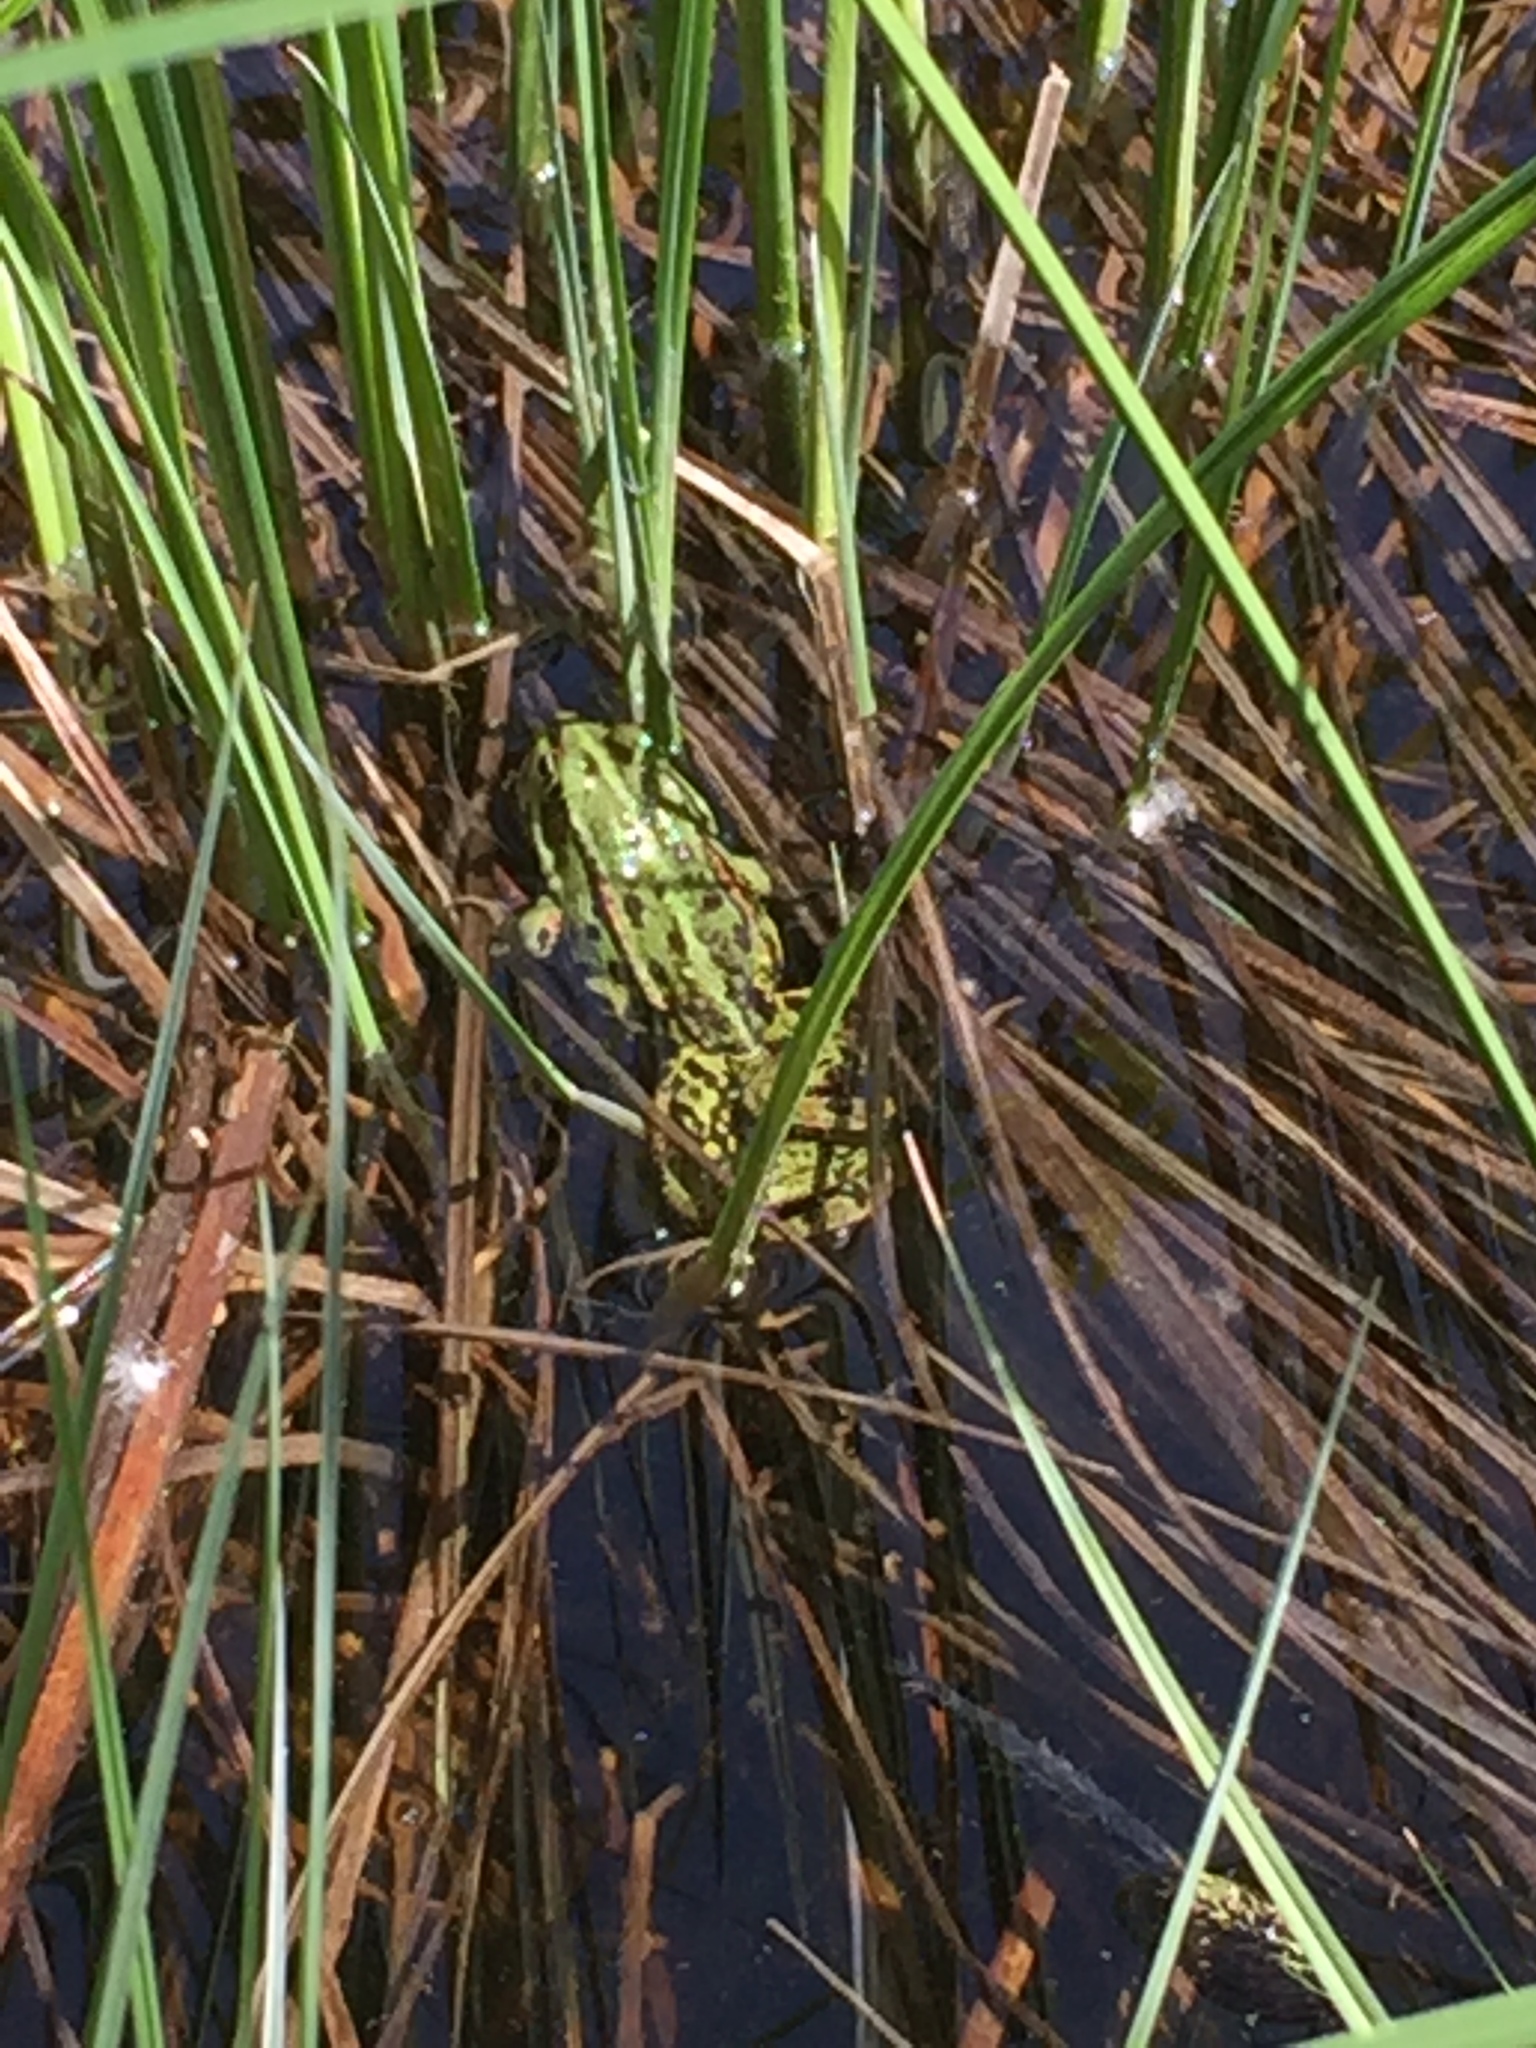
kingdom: Animalia
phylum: Chordata
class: Amphibia
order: Anura
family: Ranidae
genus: Pelophylax
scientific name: Pelophylax
